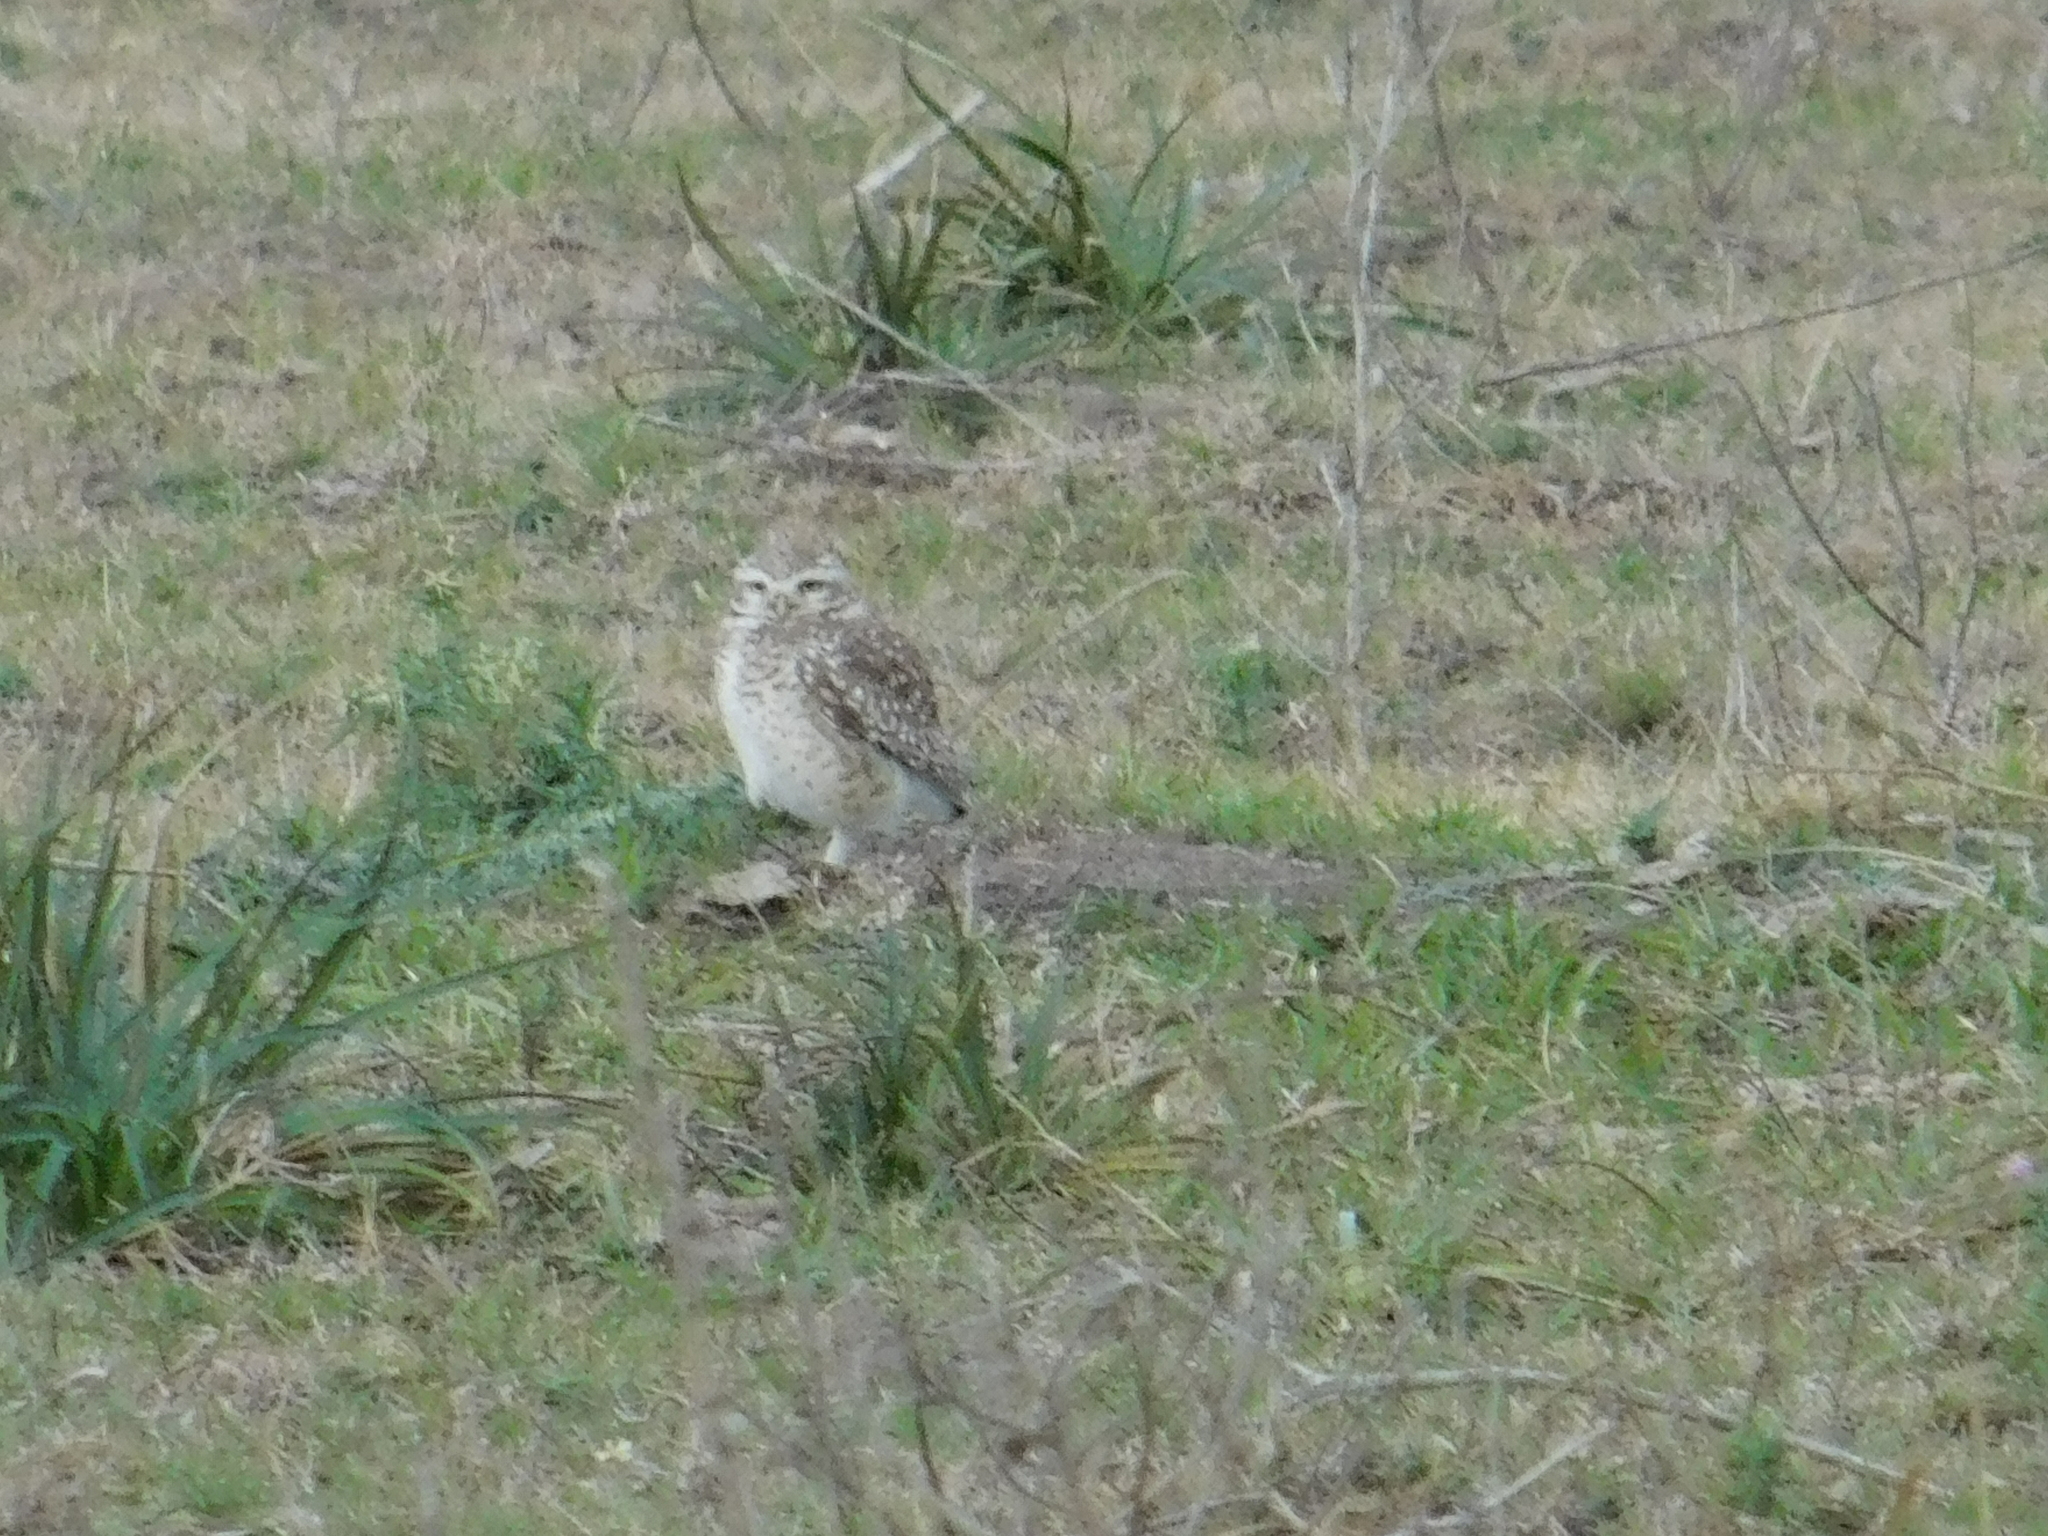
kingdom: Animalia
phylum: Chordata
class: Aves
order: Strigiformes
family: Strigidae
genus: Athene
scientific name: Athene cunicularia
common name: Burrowing owl
